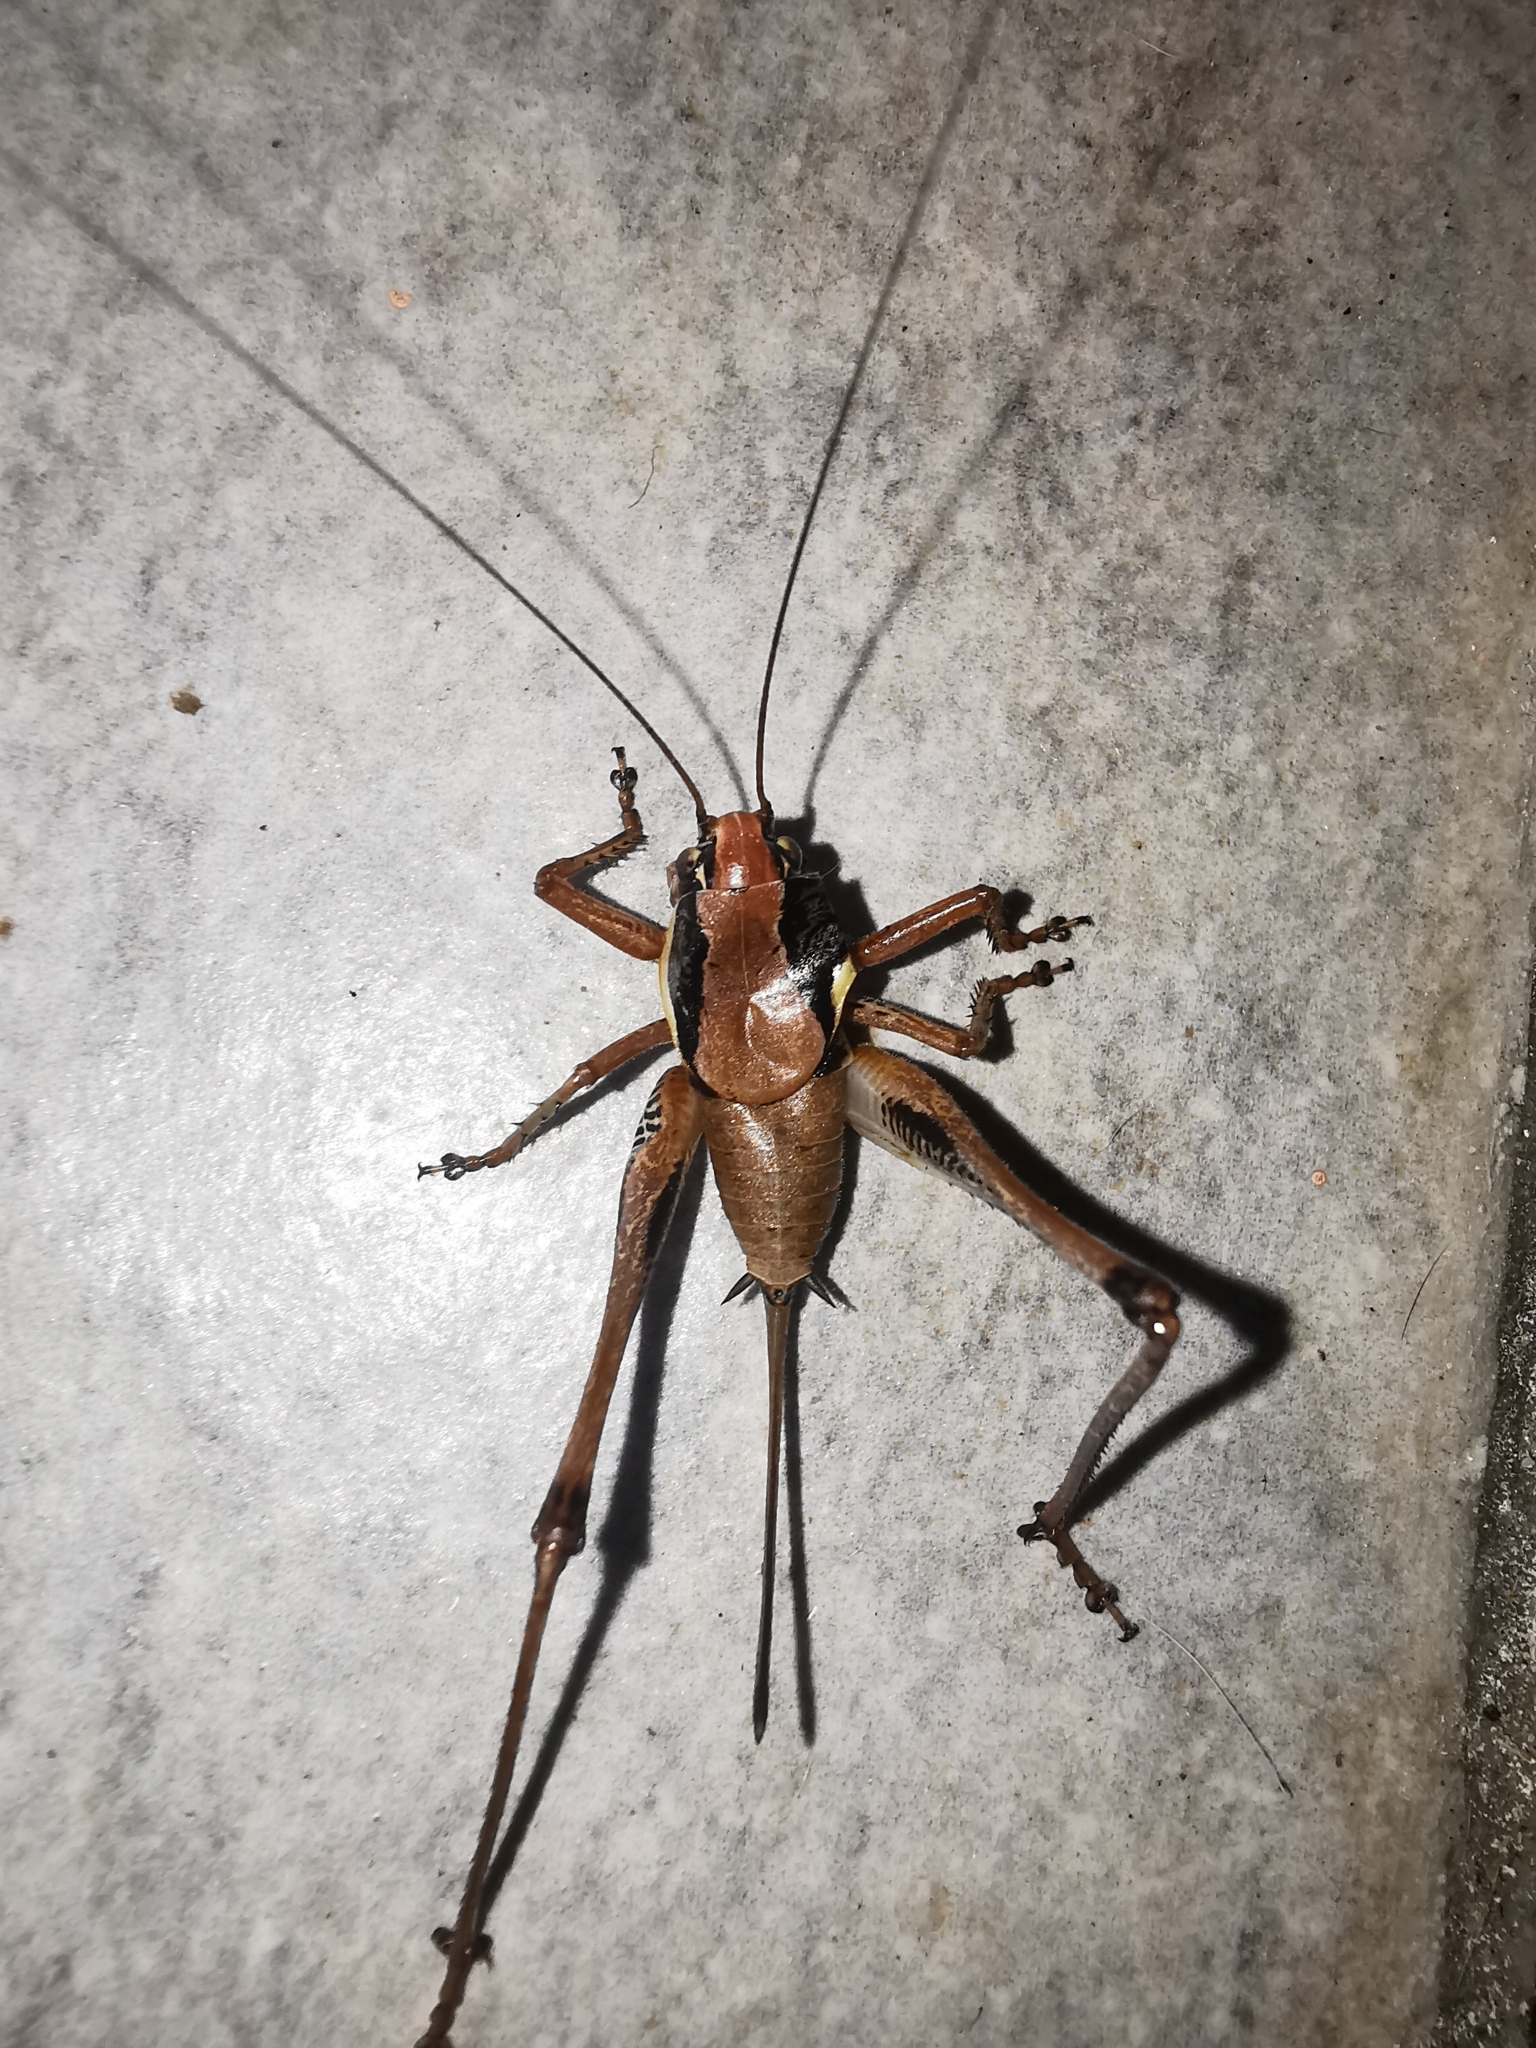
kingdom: Animalia
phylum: Arthropoda
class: Insecta
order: Orthoptera
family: Tettigoniidae
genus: Eupholidoptera
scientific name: Eupholidoptera smyrnensis
